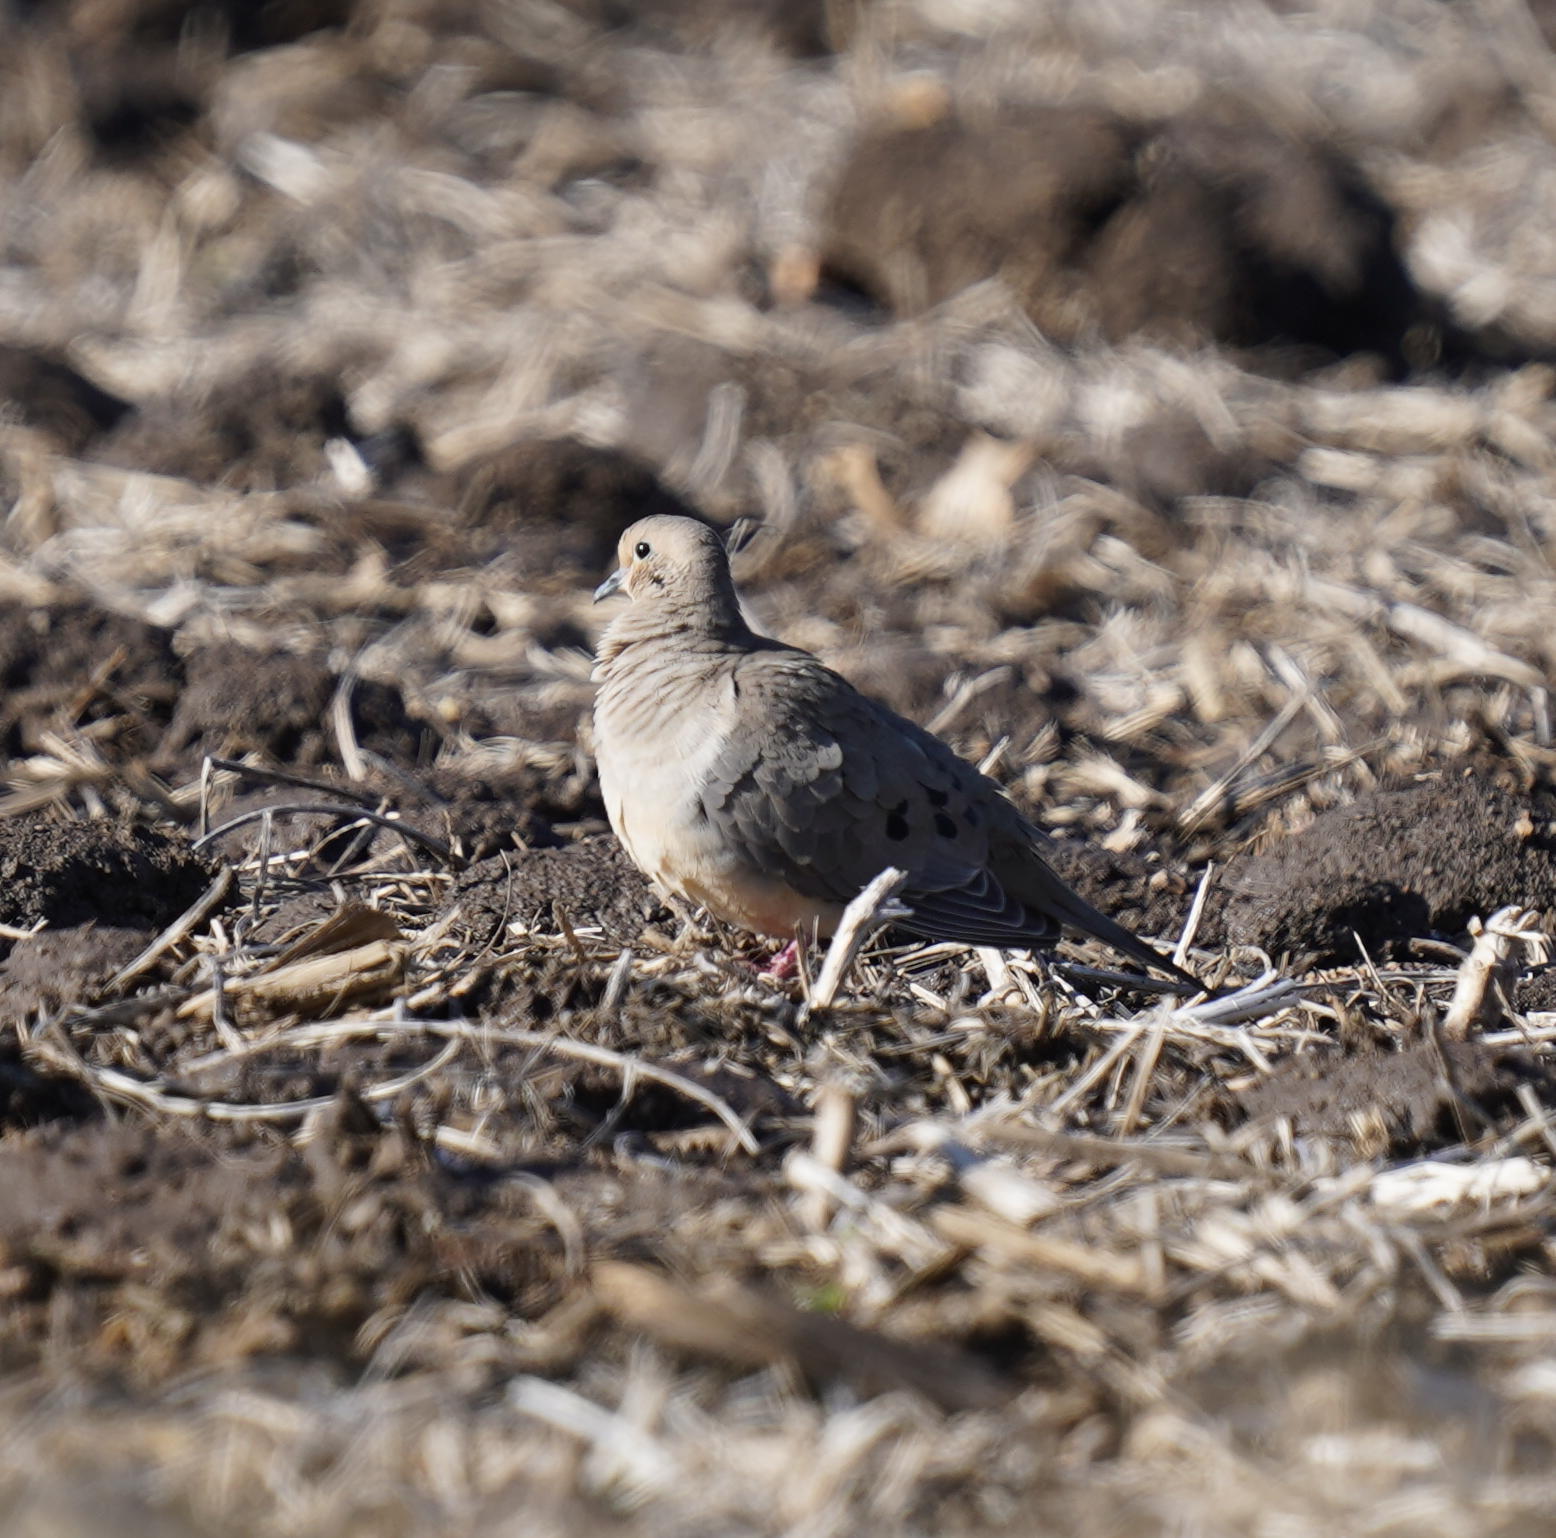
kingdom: Animalia
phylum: Chordata
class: Aves
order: Columbiformes
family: Columbidae
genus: Zenaida
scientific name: Zenaida macroura
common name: Mourning dove
